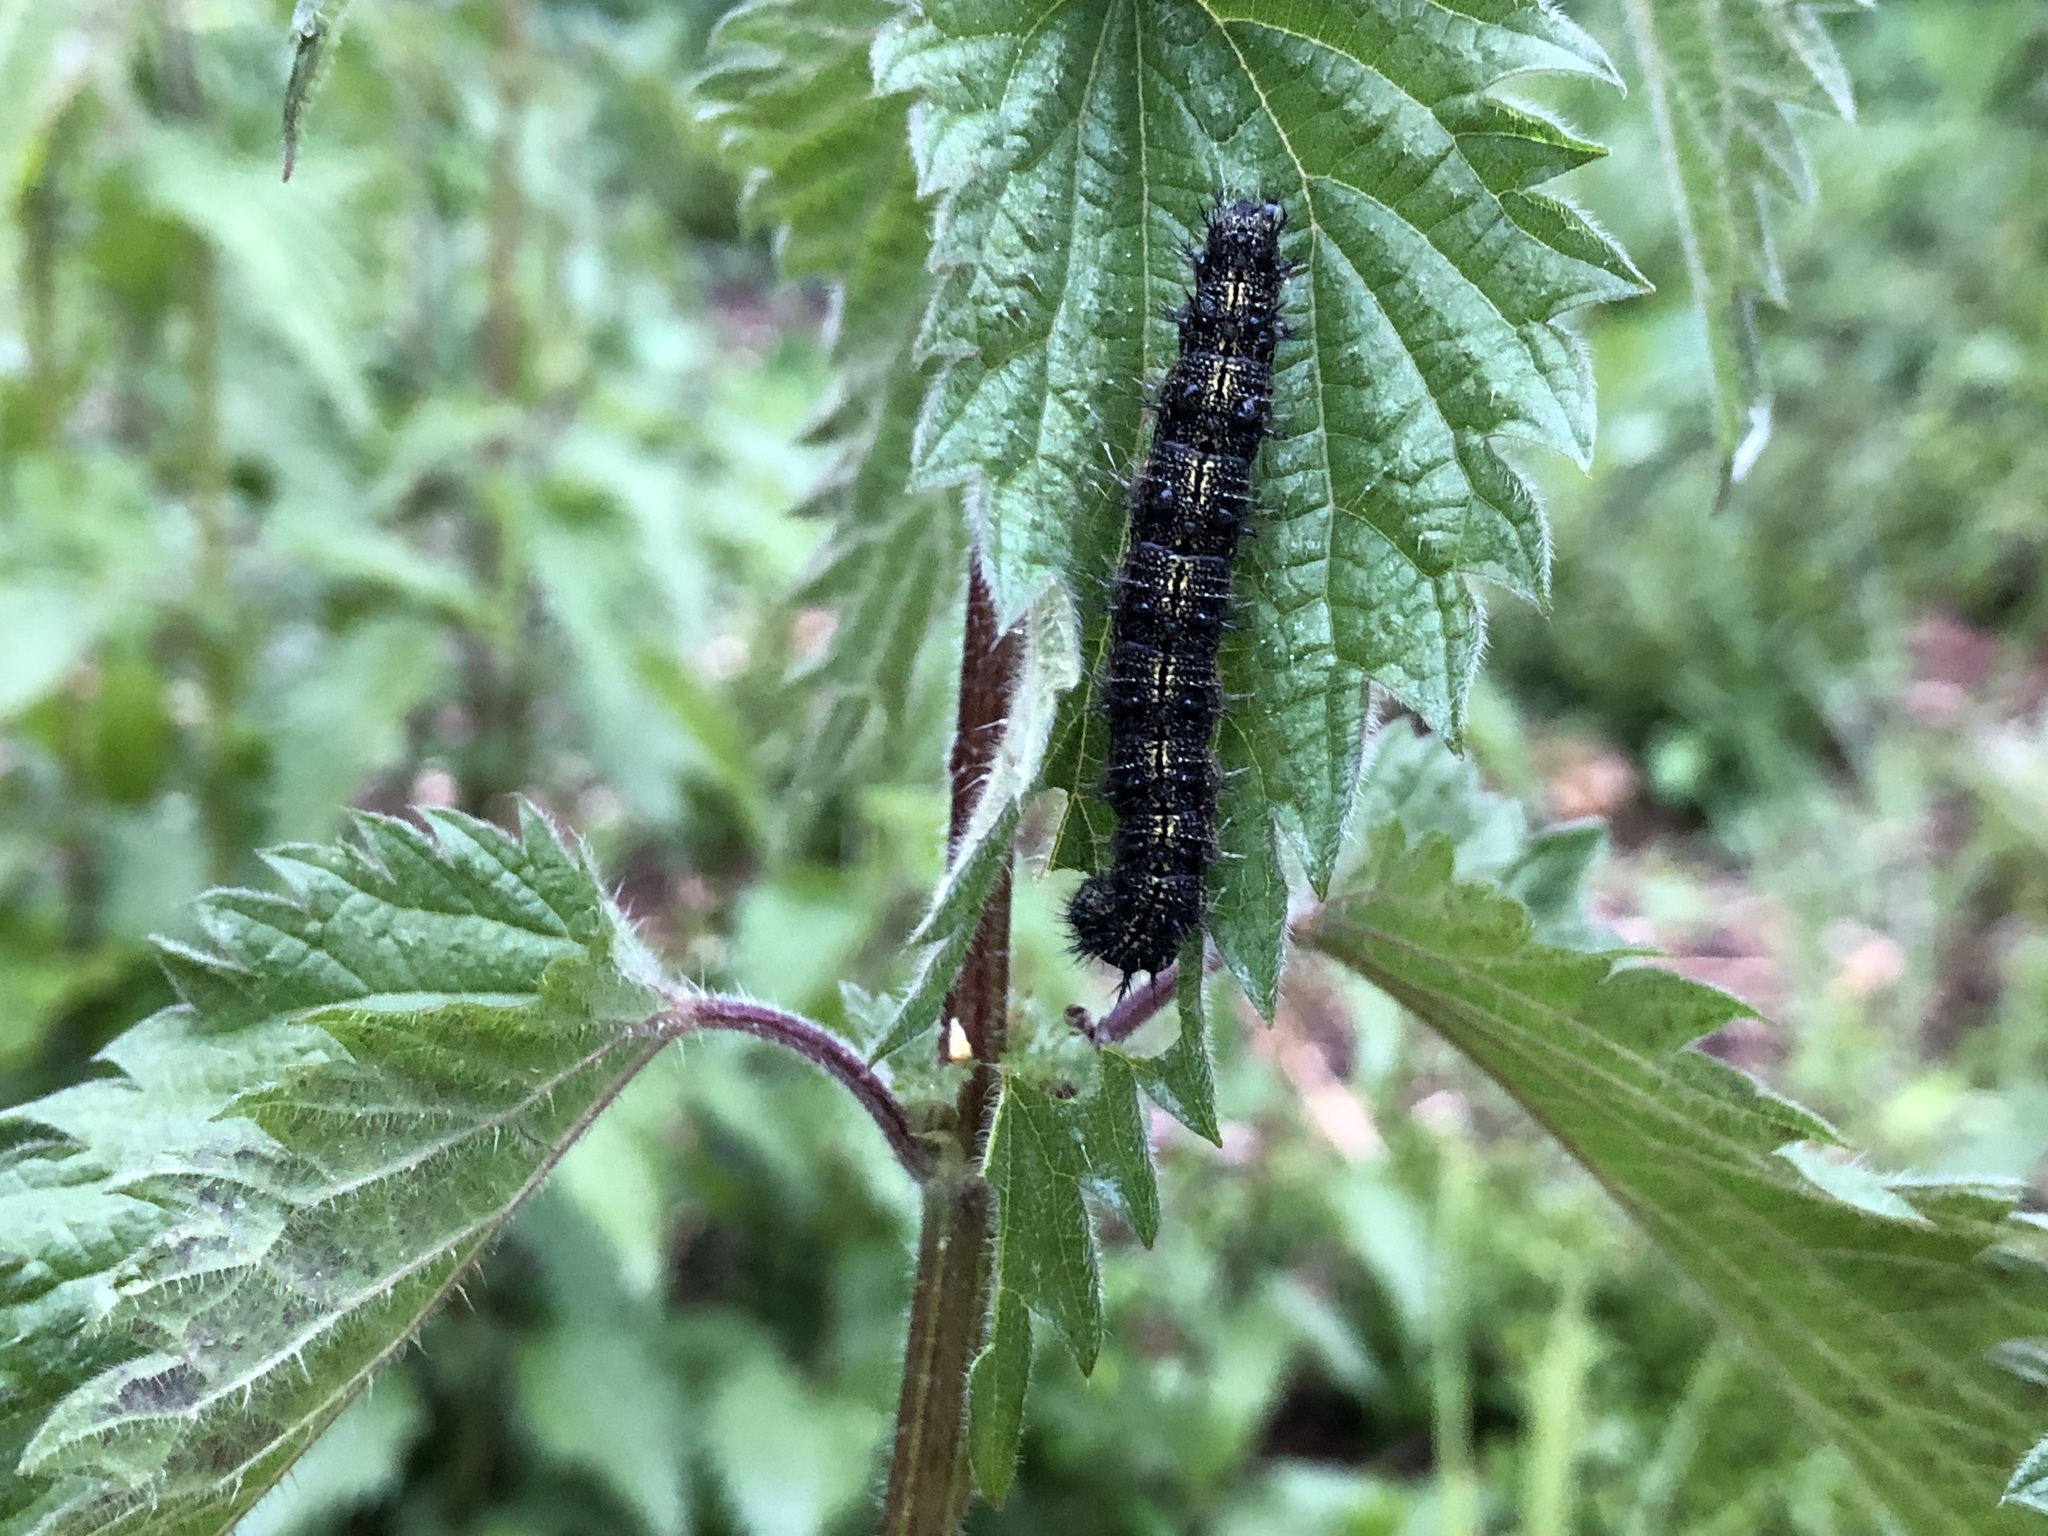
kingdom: Animalia
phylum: Arthropoda
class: Insecta
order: Lepidoptera
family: Nymphalidae
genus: Aglais
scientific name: Aglais urticae
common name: Small tortoiseshell
